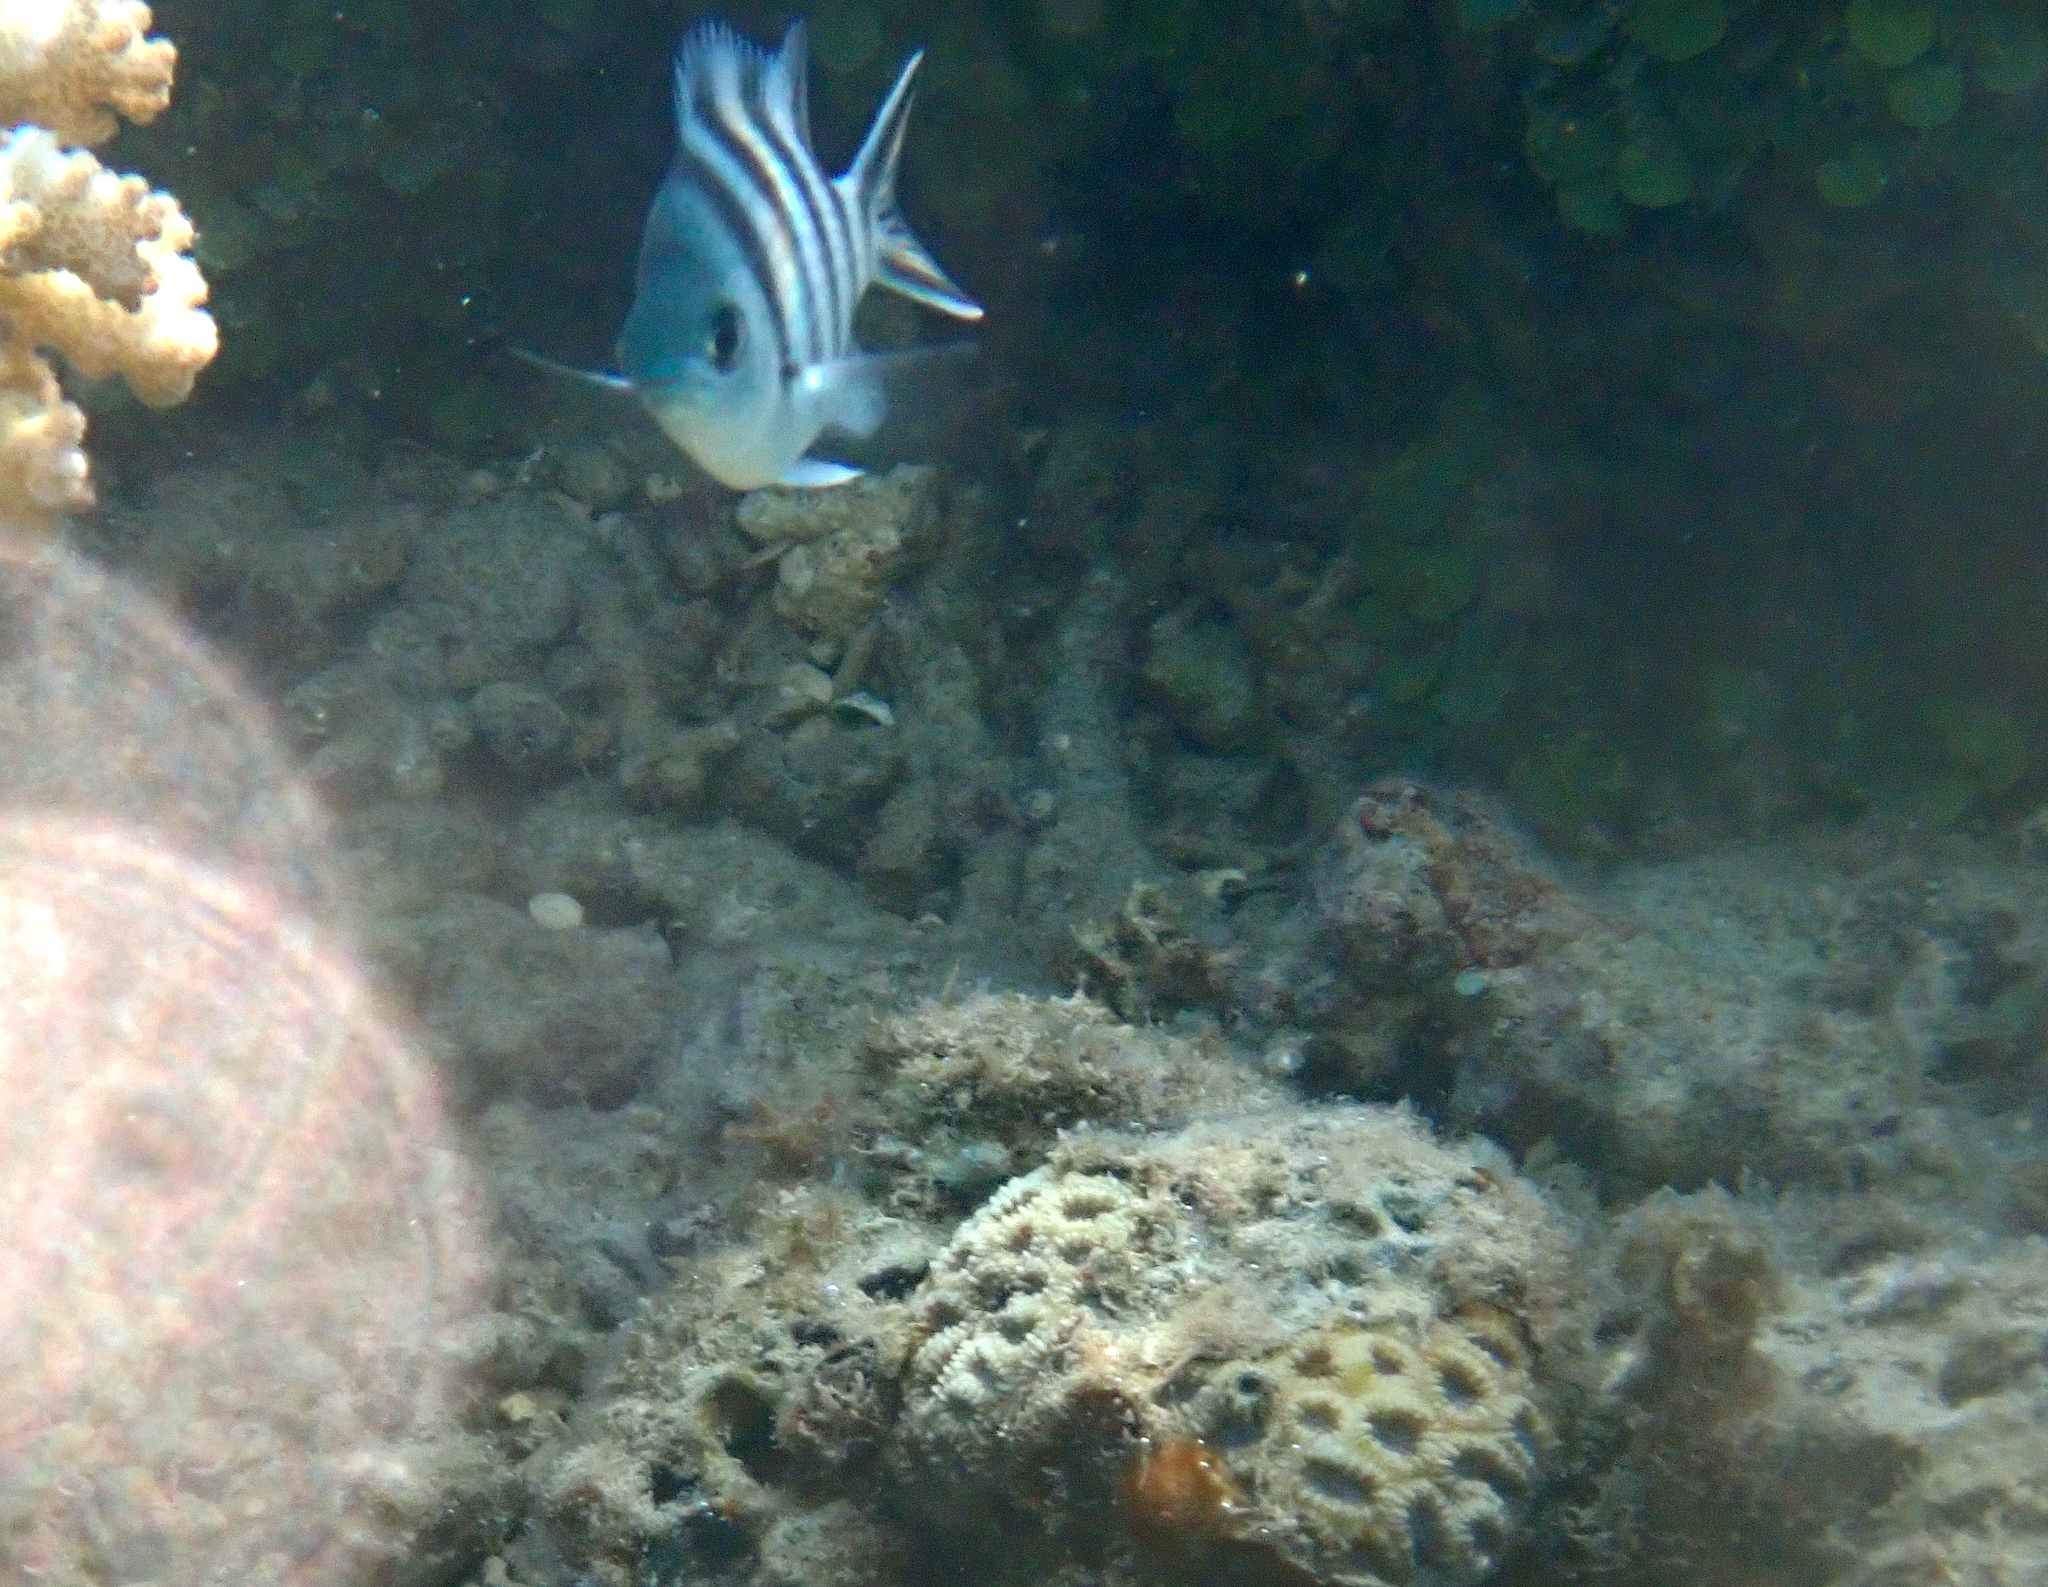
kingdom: Animalia
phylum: Chordata
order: Perciformes
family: Pomacentridae
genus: Abudefduf
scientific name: Abudefduf sexfasciatus
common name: Scissortail sergeant
